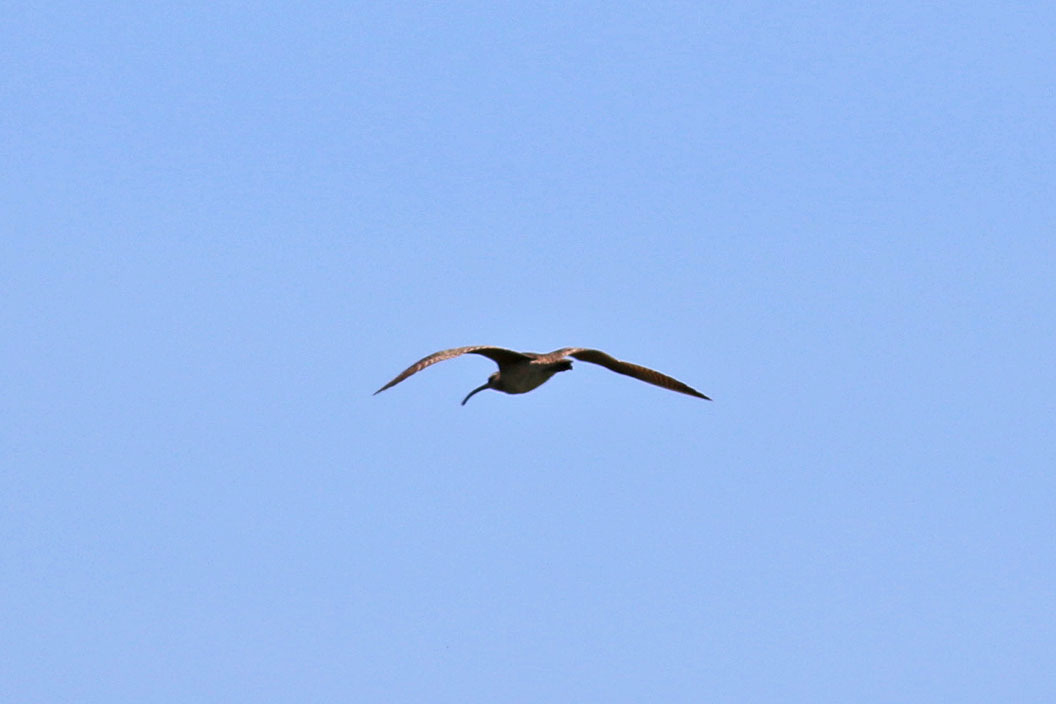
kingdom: Animalia
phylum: Chordata
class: Aves
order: Charadriiformes
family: Scolopacidae
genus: Numenius
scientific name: Numenius phaeopus
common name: Whimbrel
